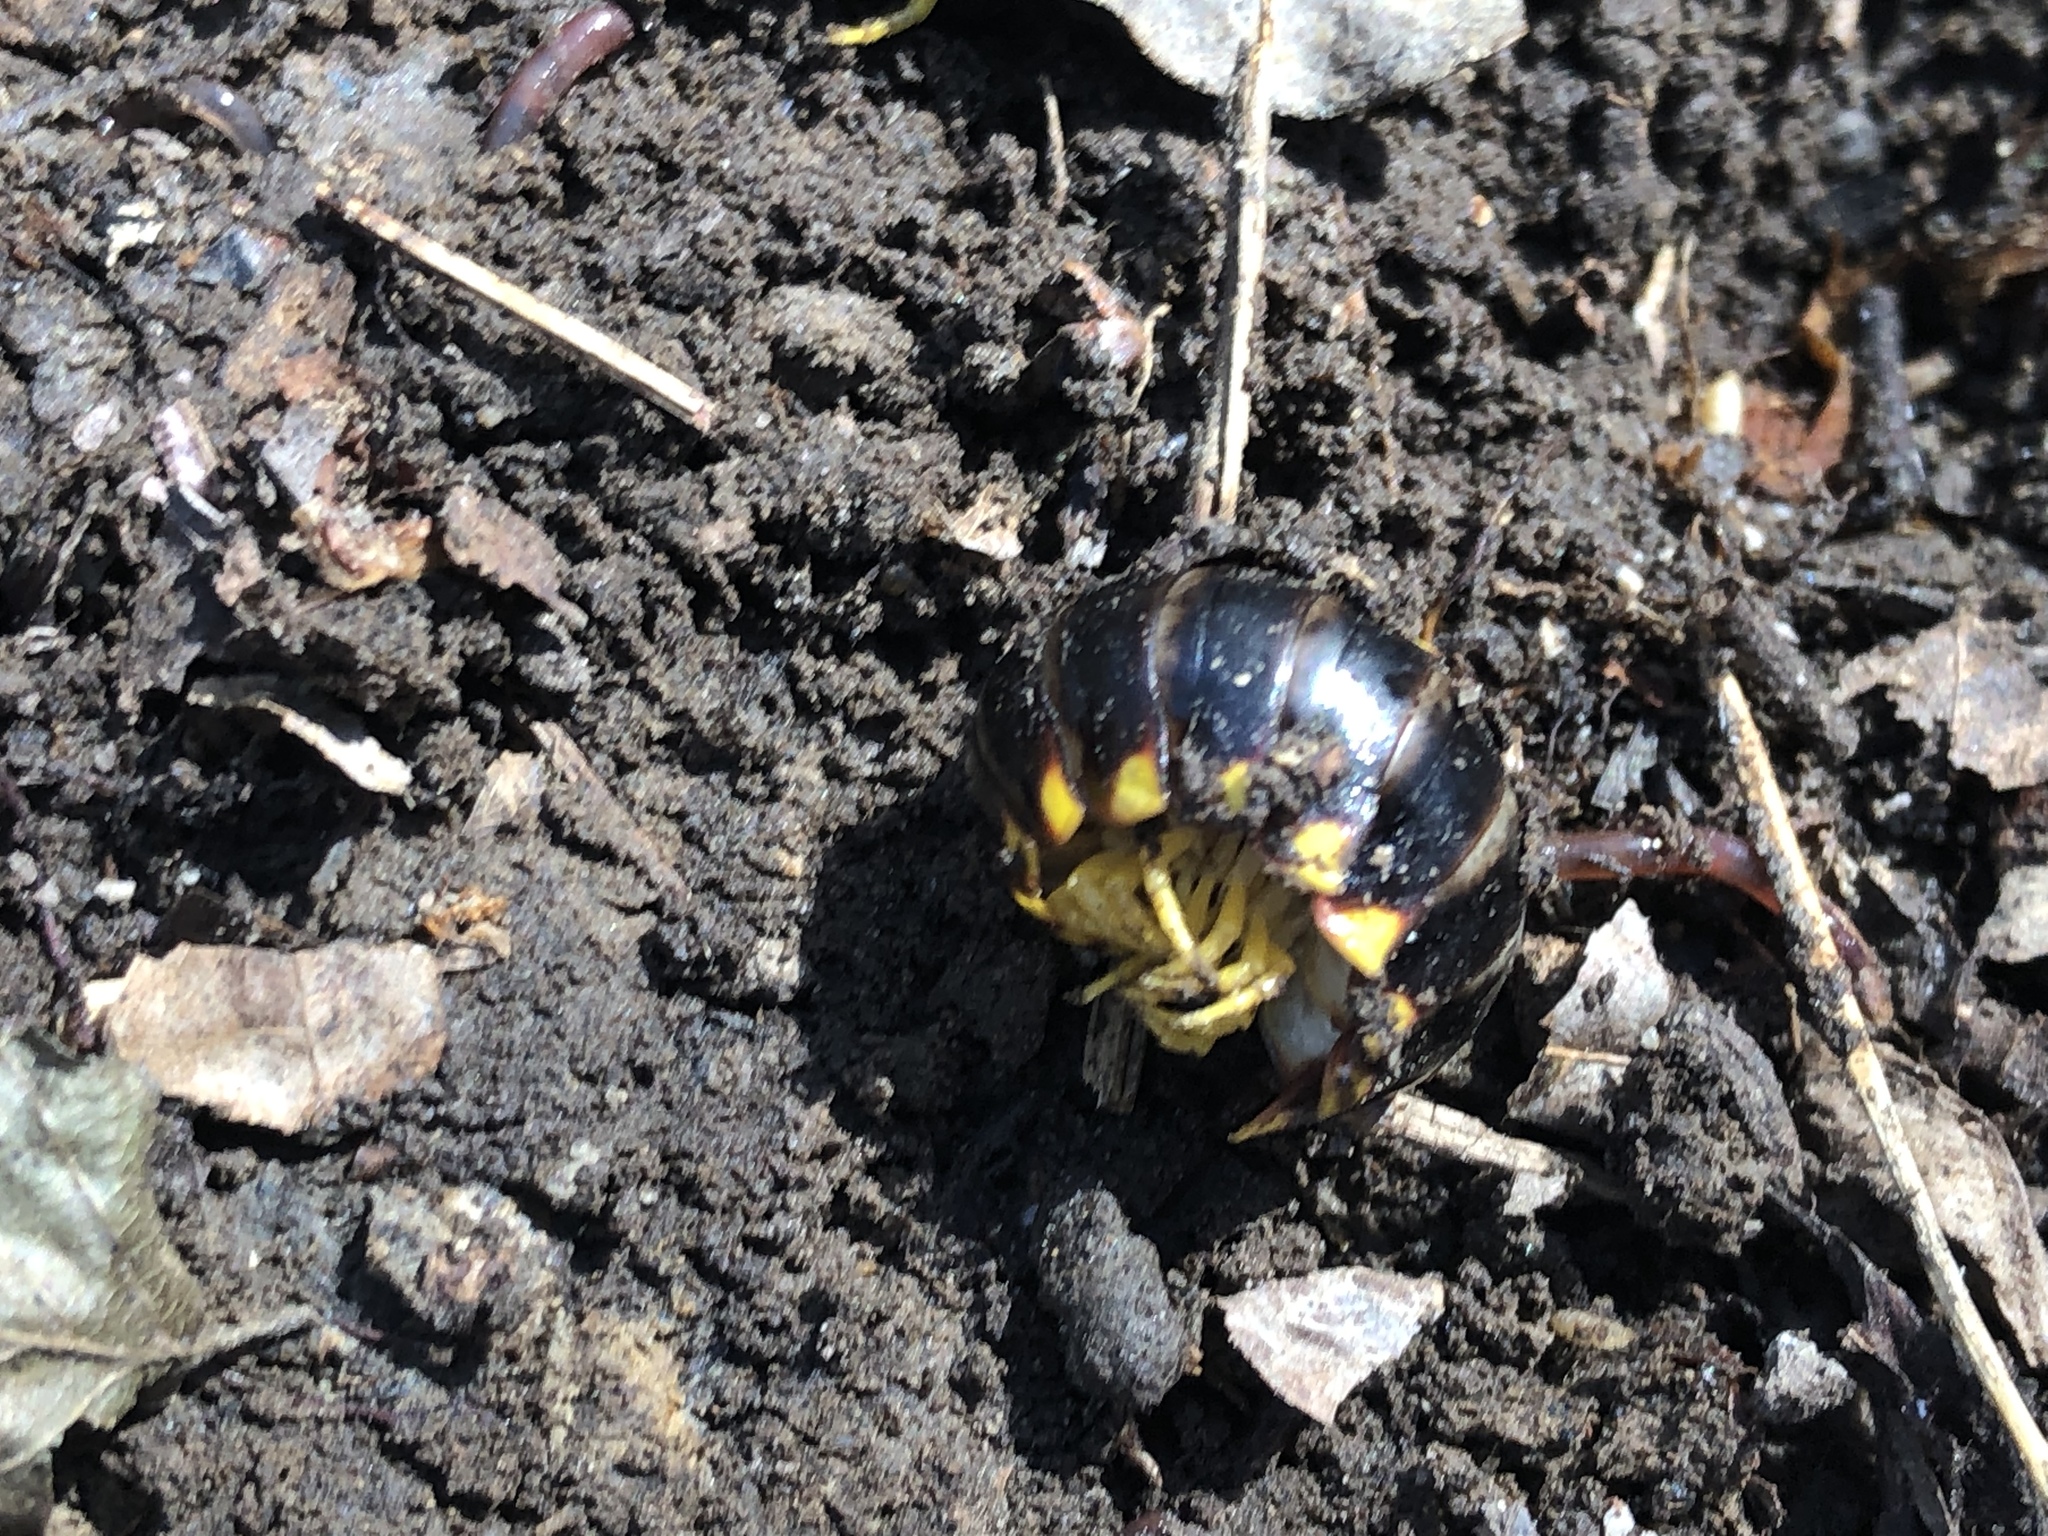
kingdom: Animalia
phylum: Arthropoda
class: Diplopoda
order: Polydesmida
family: Xystodesmidae
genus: Apheloria
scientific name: Apheloria tigana
